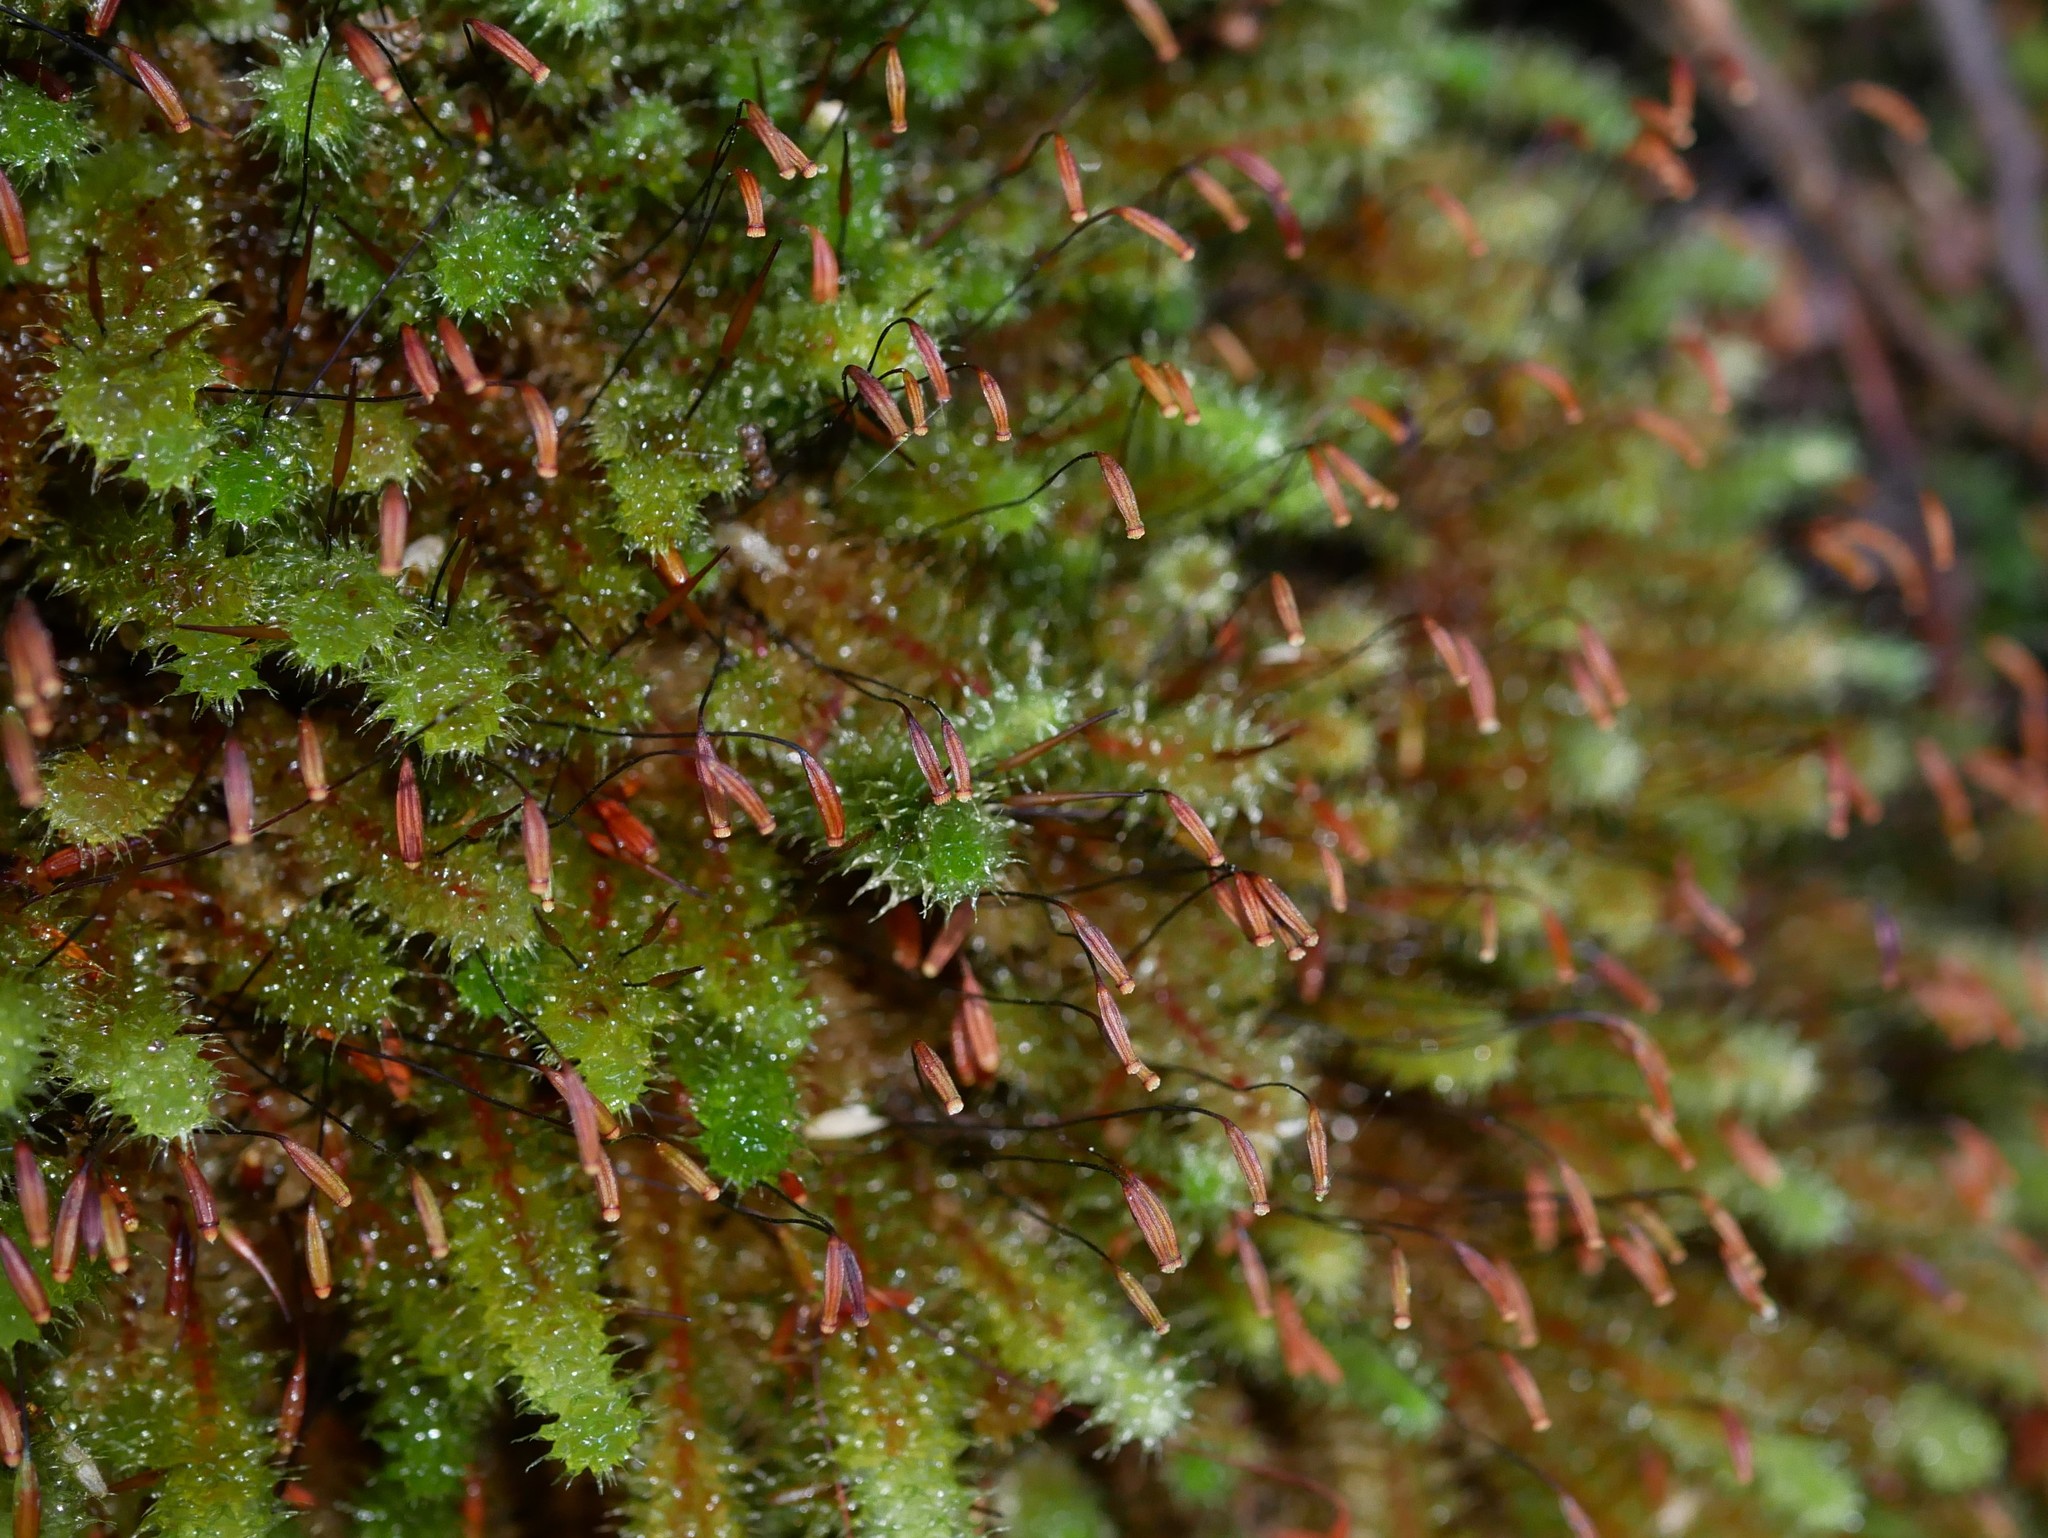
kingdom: Plantae
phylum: Bryophyta
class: Bryopsida
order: Ptychomniales
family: Ptychomniaceae
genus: Ptychomnion
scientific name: Ptychomnion aciculare
